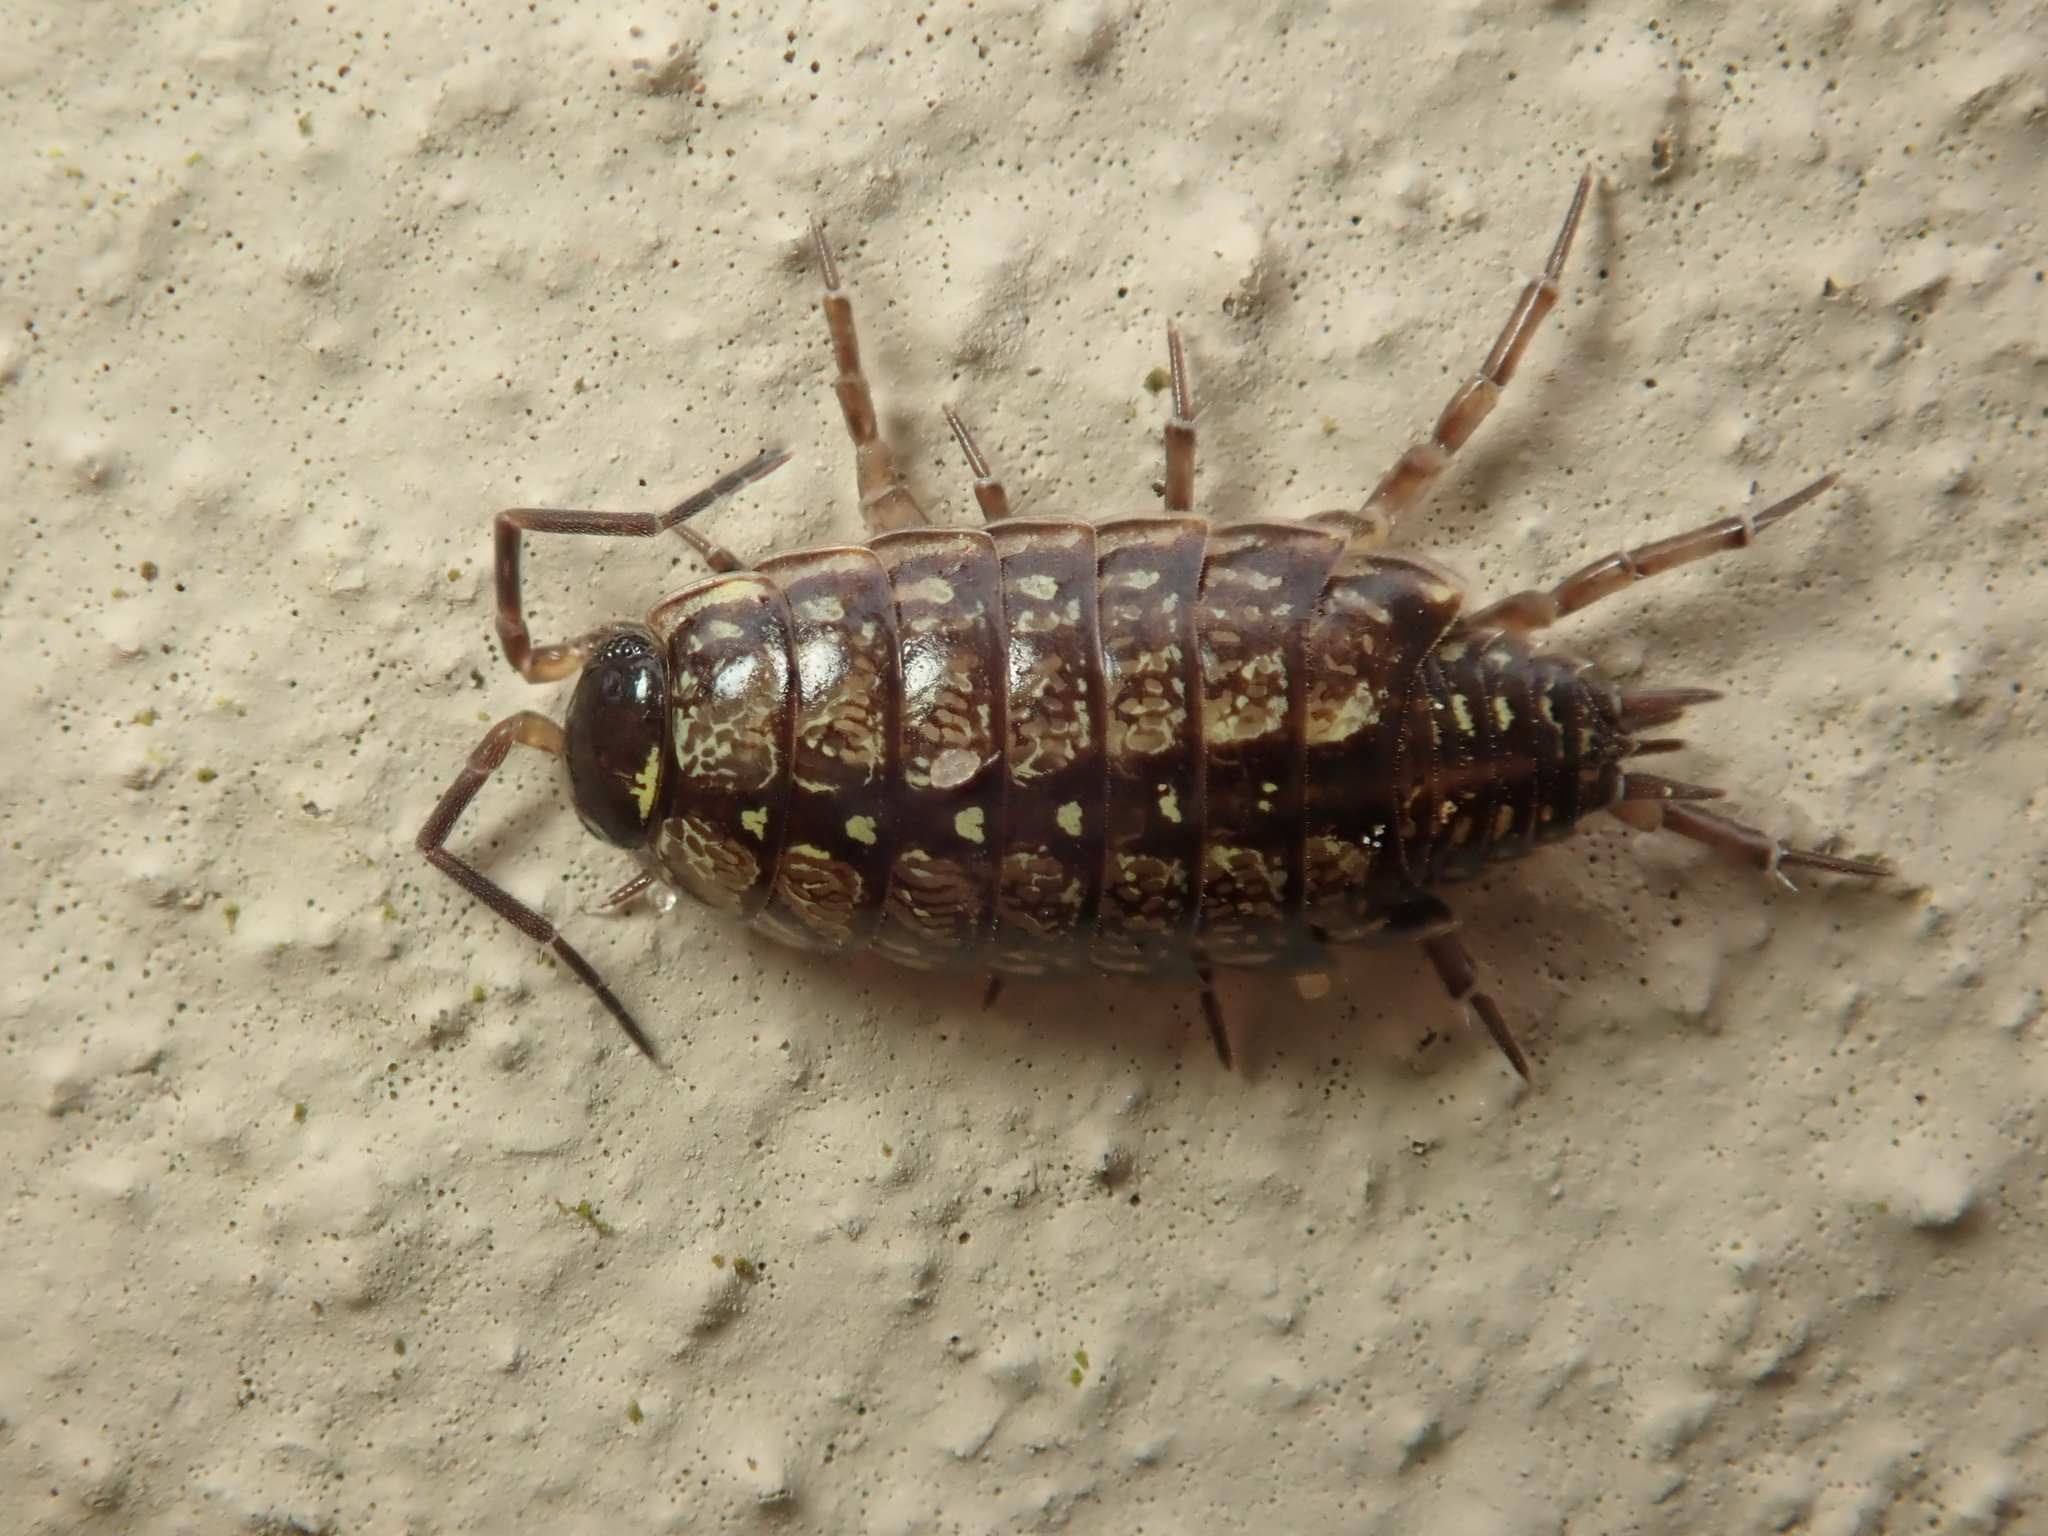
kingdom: Animalia
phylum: Arthropoda
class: Malacostraca
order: Isopoda
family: Philosciidae
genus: Philoscia
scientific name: Philoscia muscorum
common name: Common striped woodlouse
